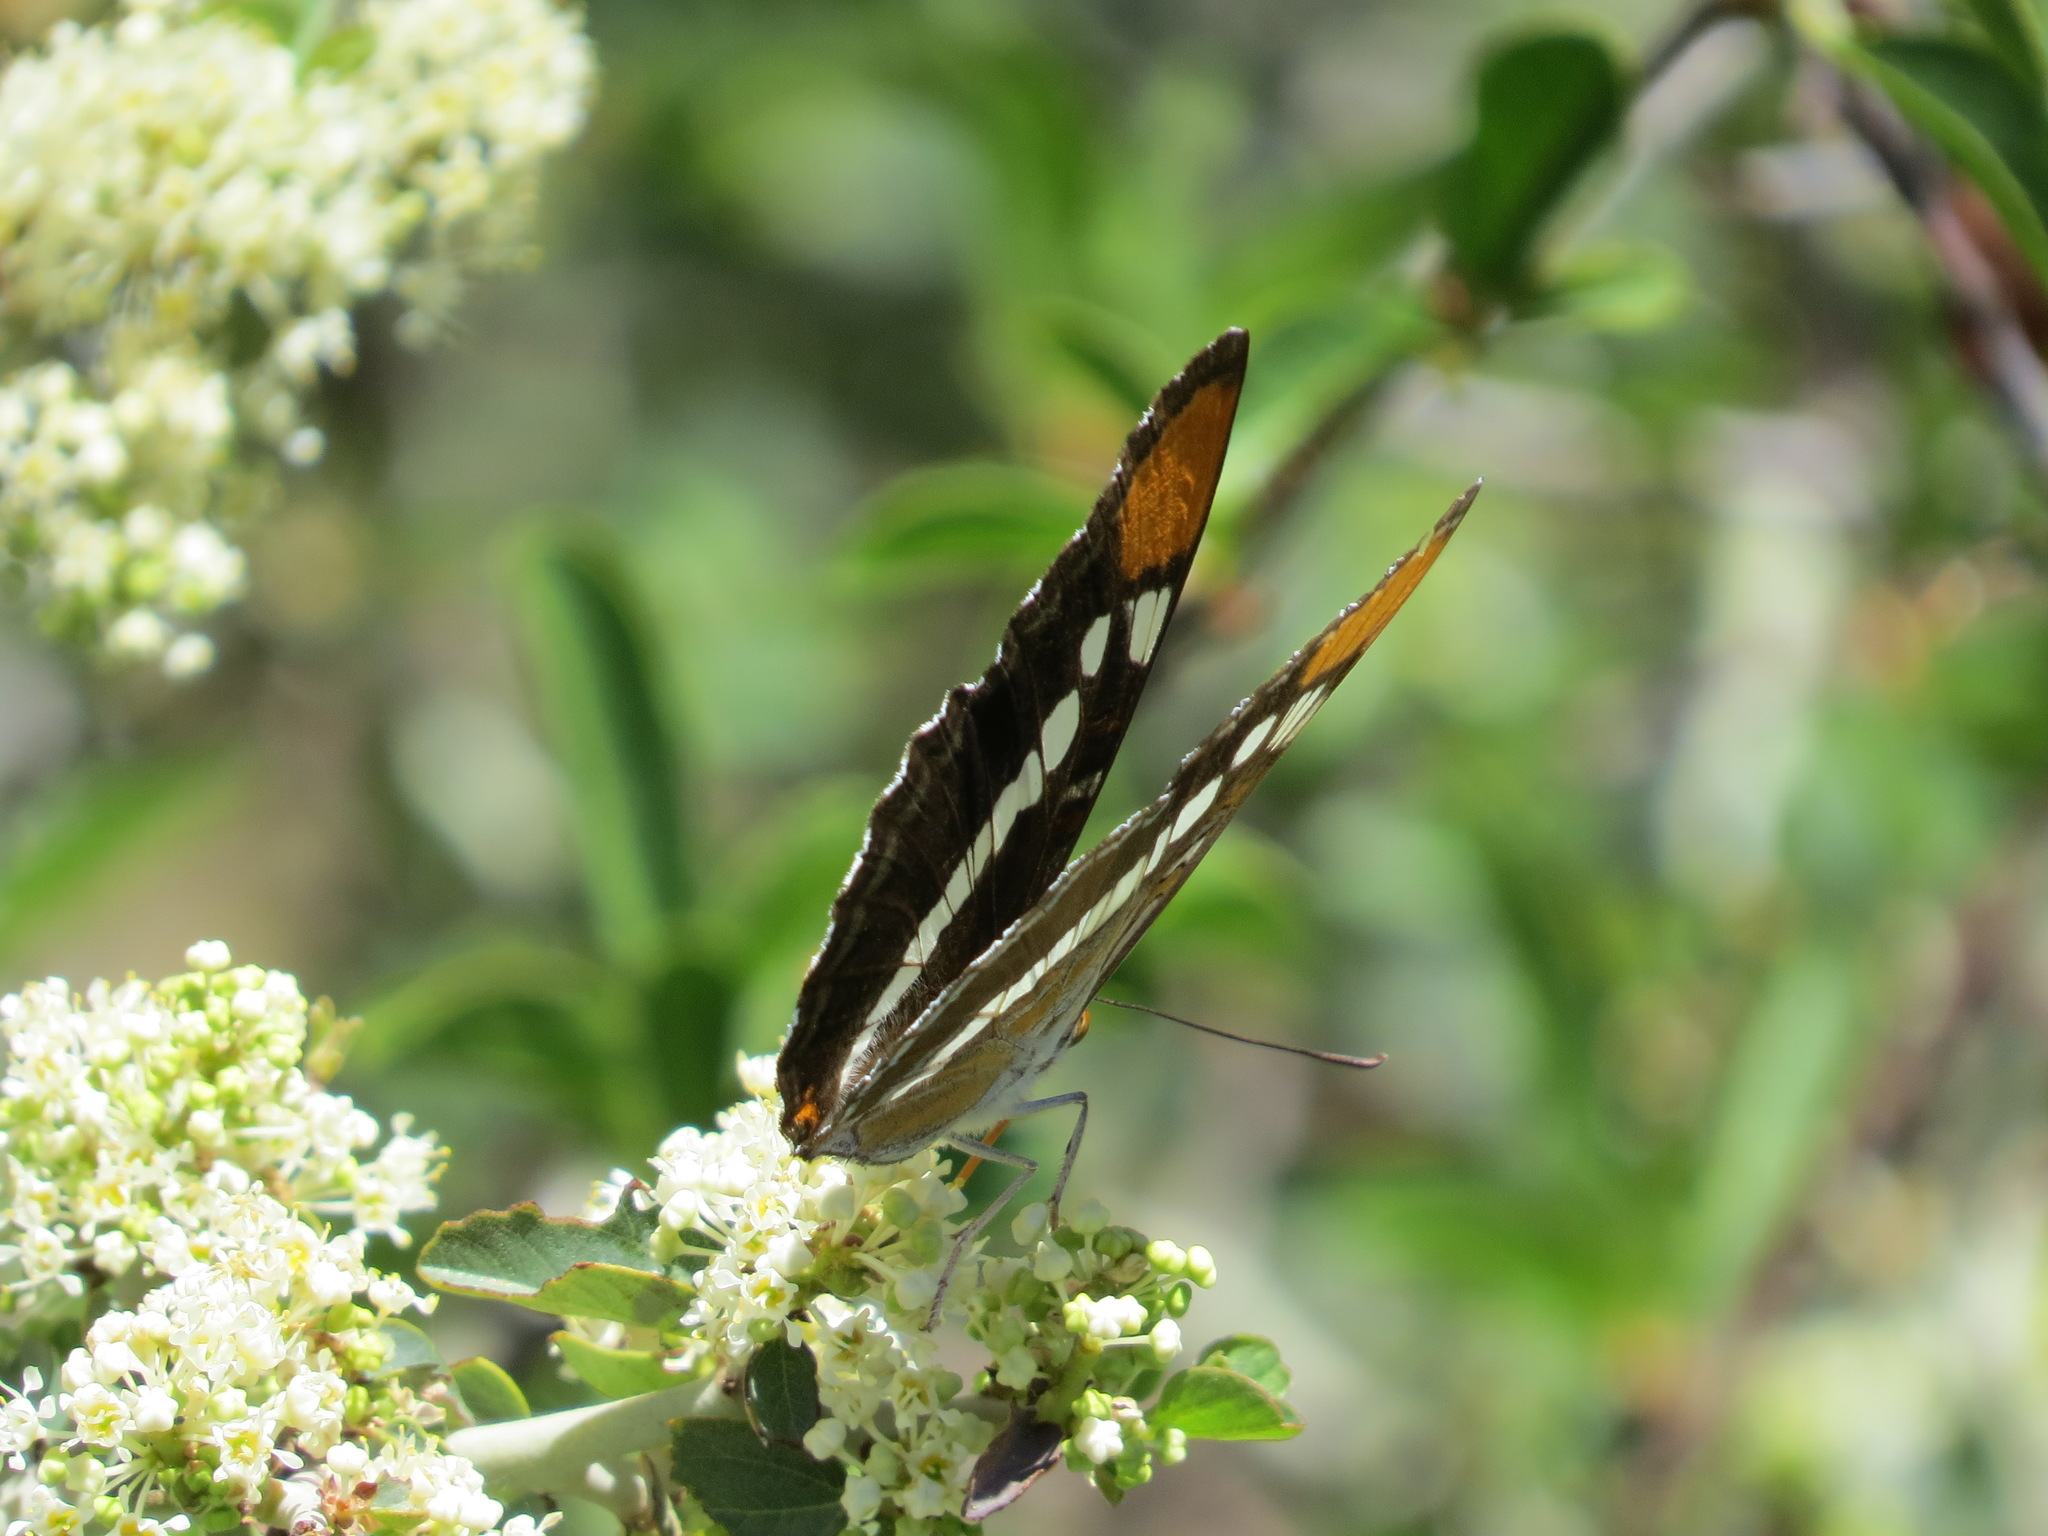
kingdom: Animalia
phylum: Arthropoda
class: Insecta
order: Lepidoptera
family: Nymphalidae
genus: Limenitis
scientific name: Limenitis bredowii
